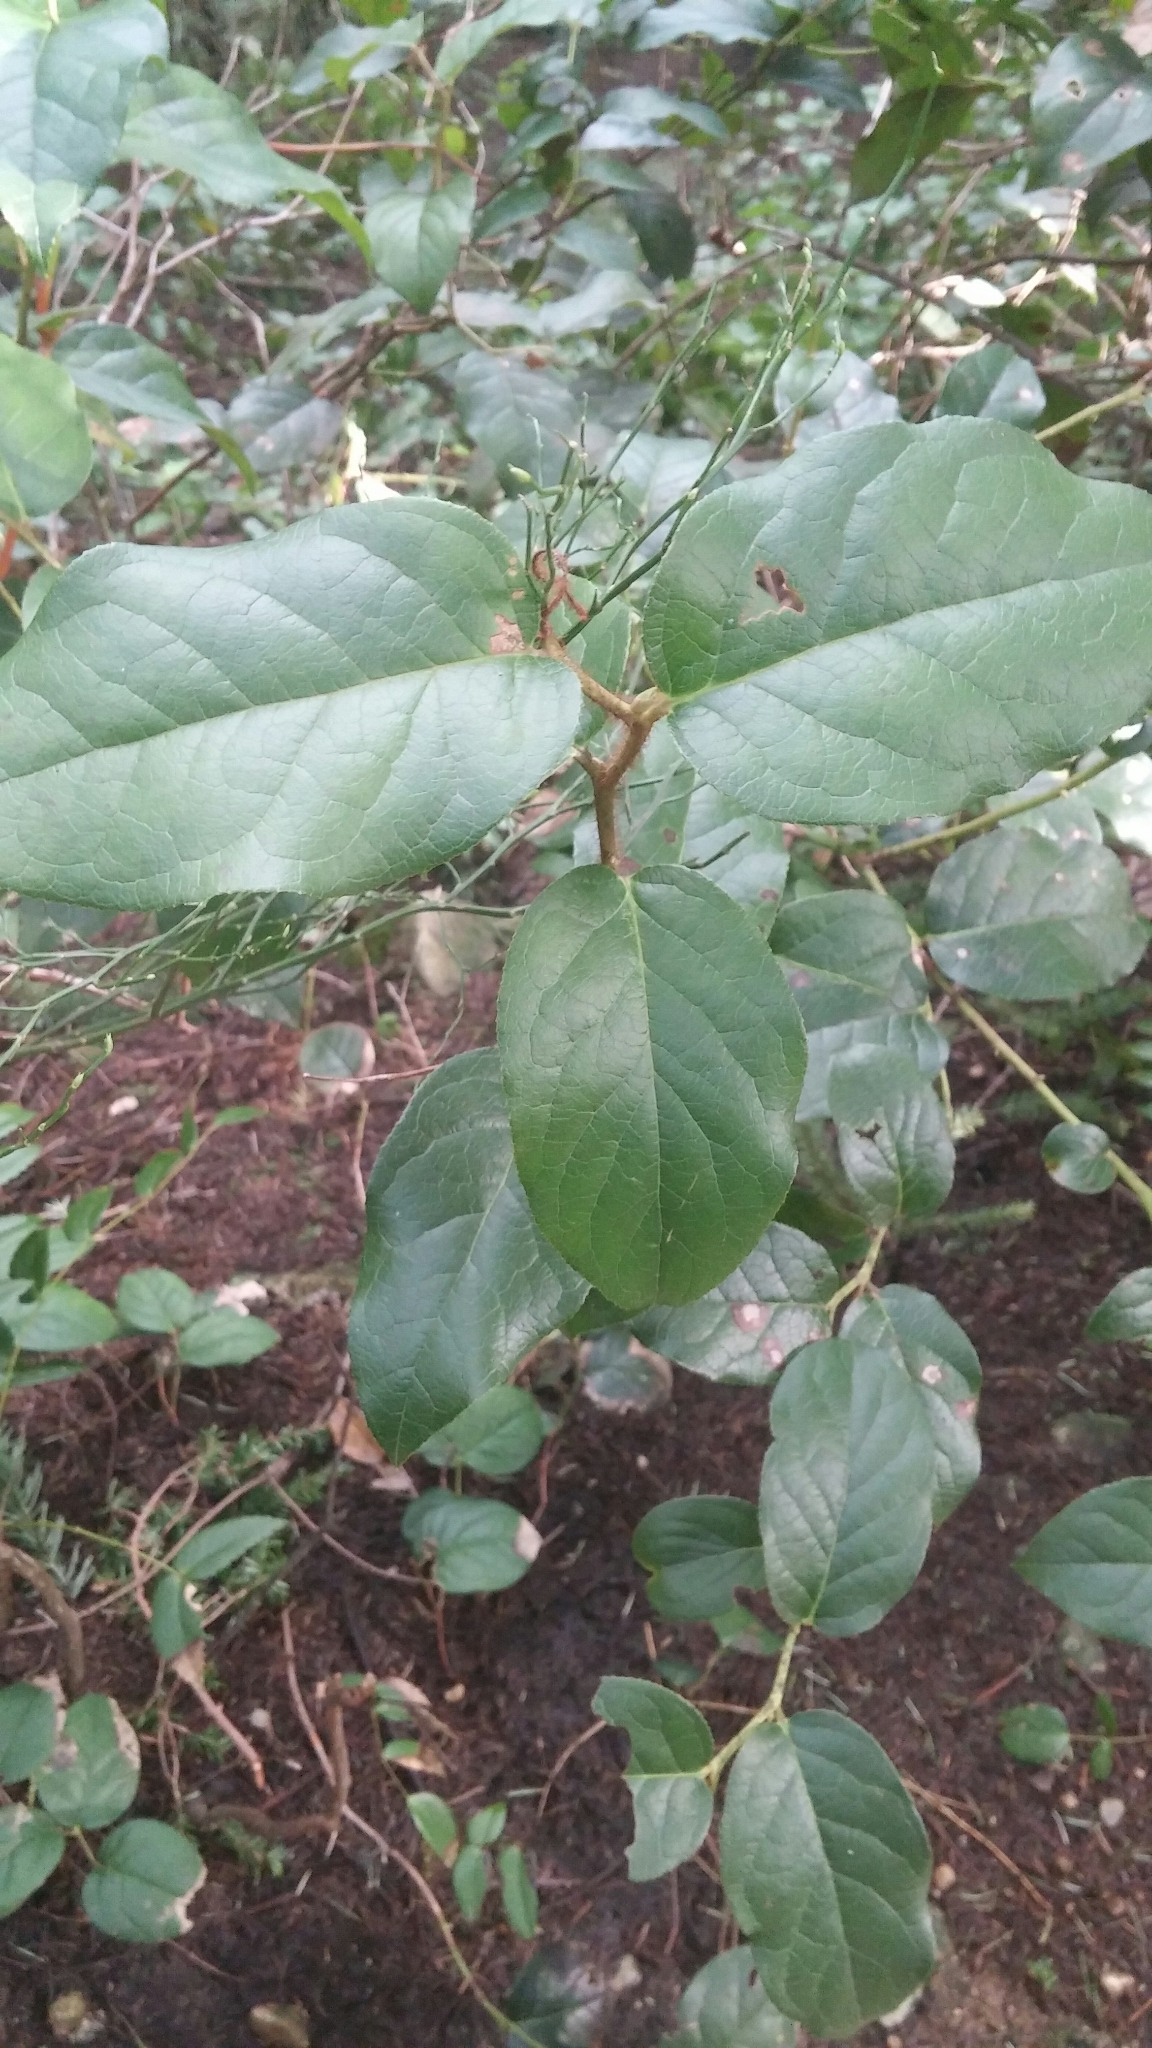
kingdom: Plantae
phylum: Tracheophyta
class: Magnoliopsida
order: Ericales
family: Ericaceae
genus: Gaultheria
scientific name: Gaultheria shallon
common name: Shallon
